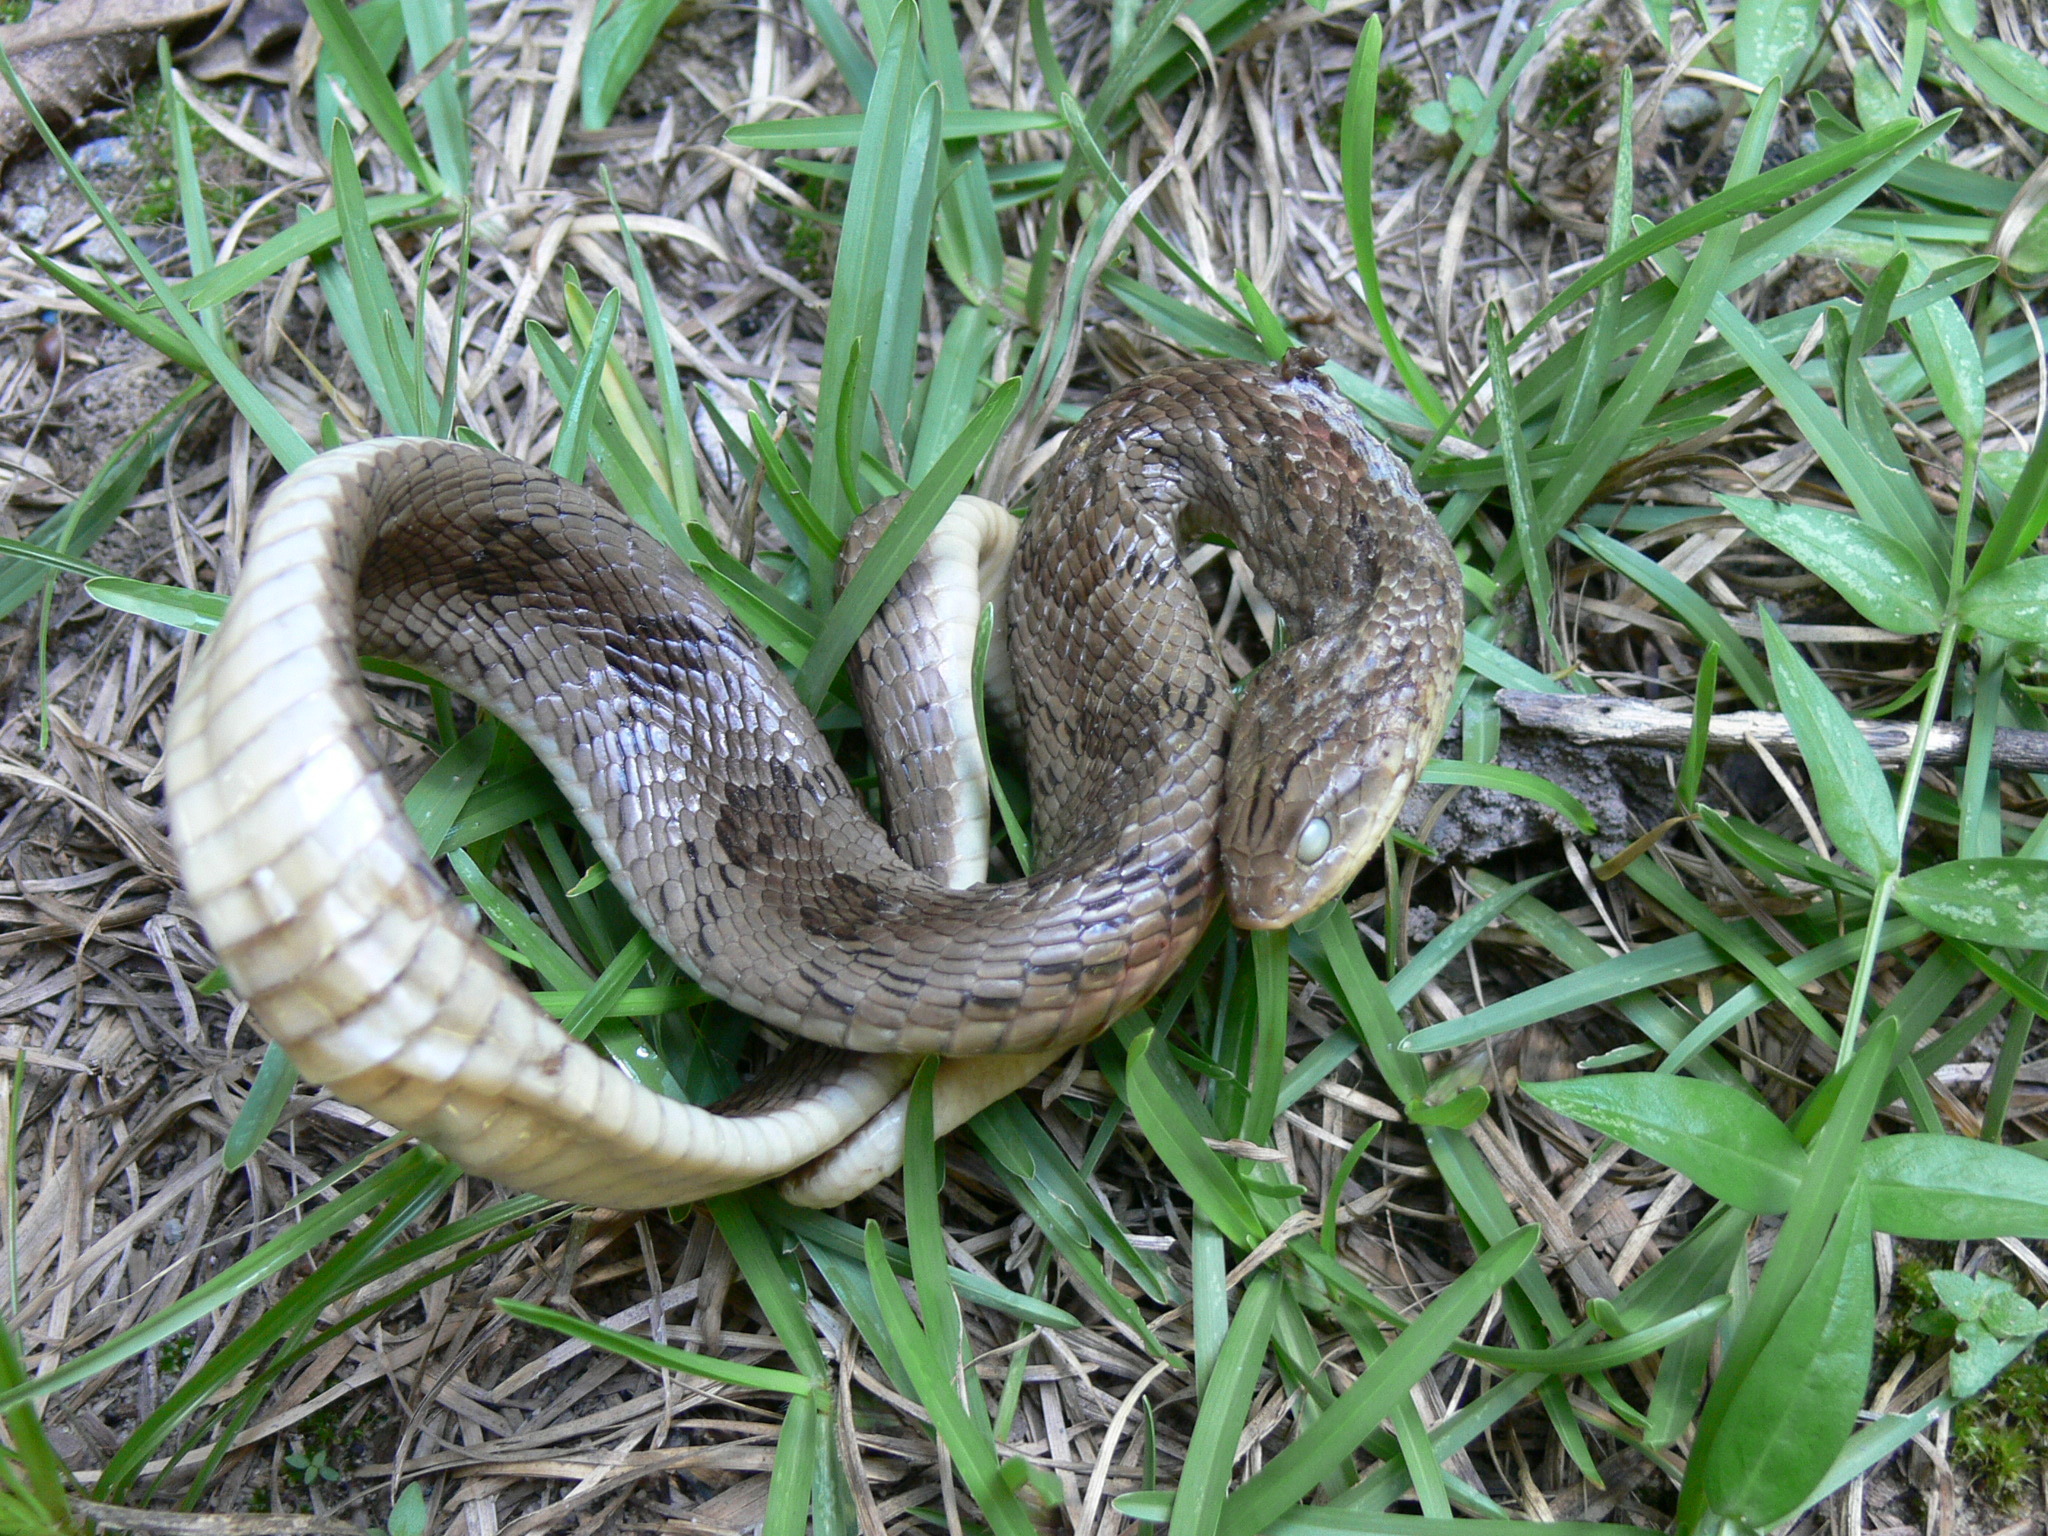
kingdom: Animalia
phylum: Chordata
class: Squamata
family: Viperidae
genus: Causus
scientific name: Causus maculatus
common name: Spotted night adder
